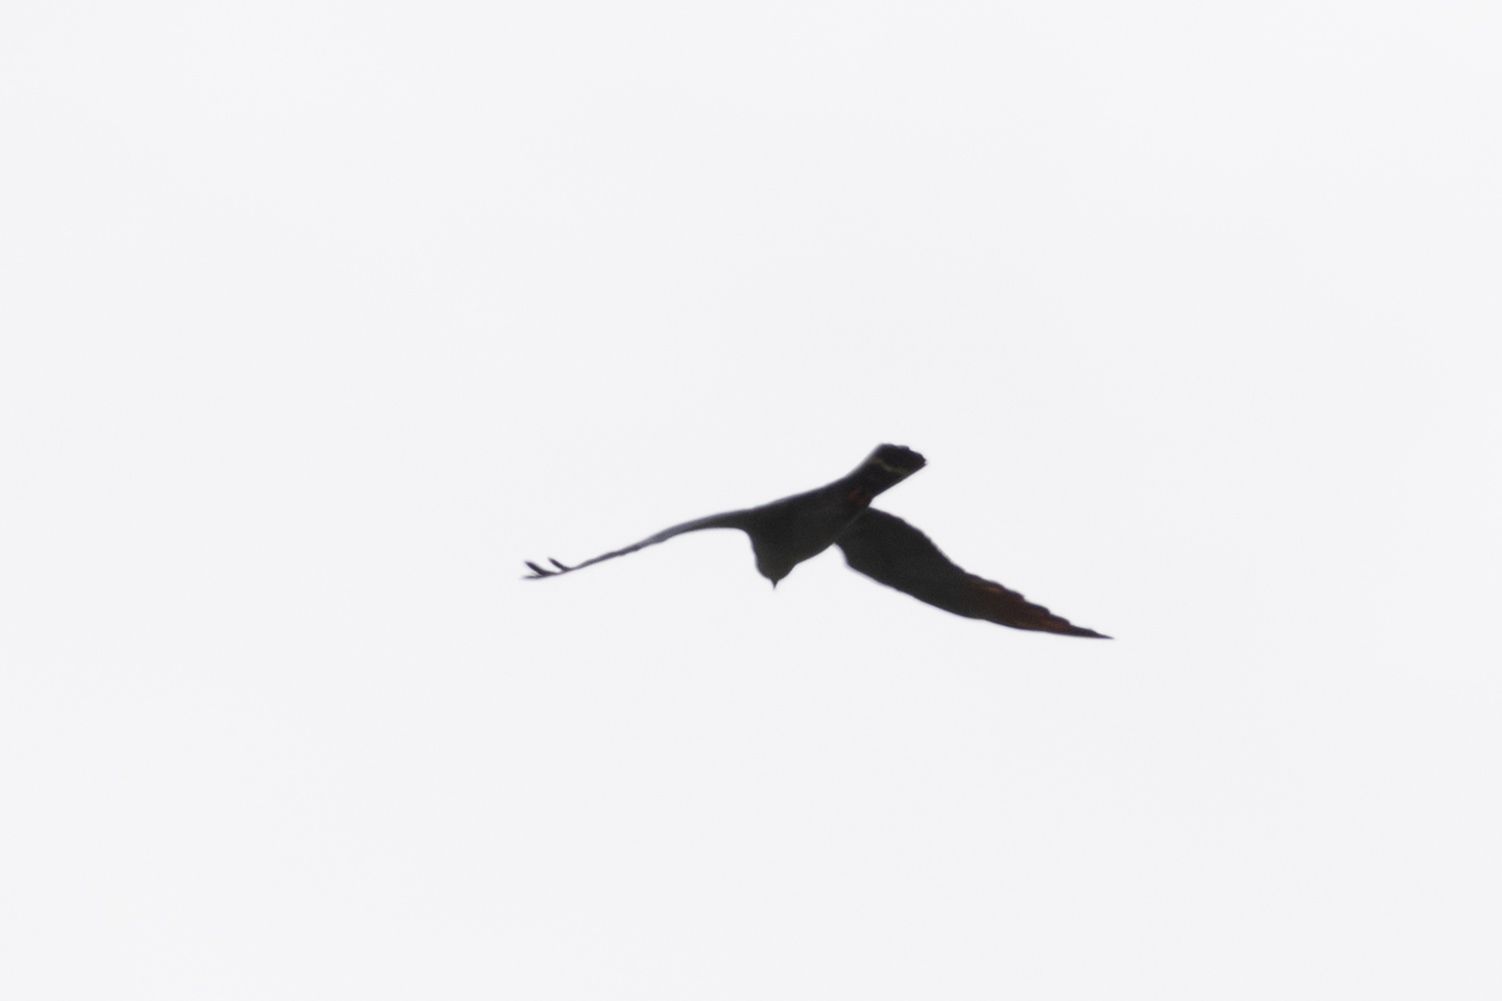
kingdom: Animalia
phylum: Chordata
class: Aves
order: Accipitriformes
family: Accipitridae
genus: Ictinia
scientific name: Ictinia plumbea
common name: Plumbeous kite
